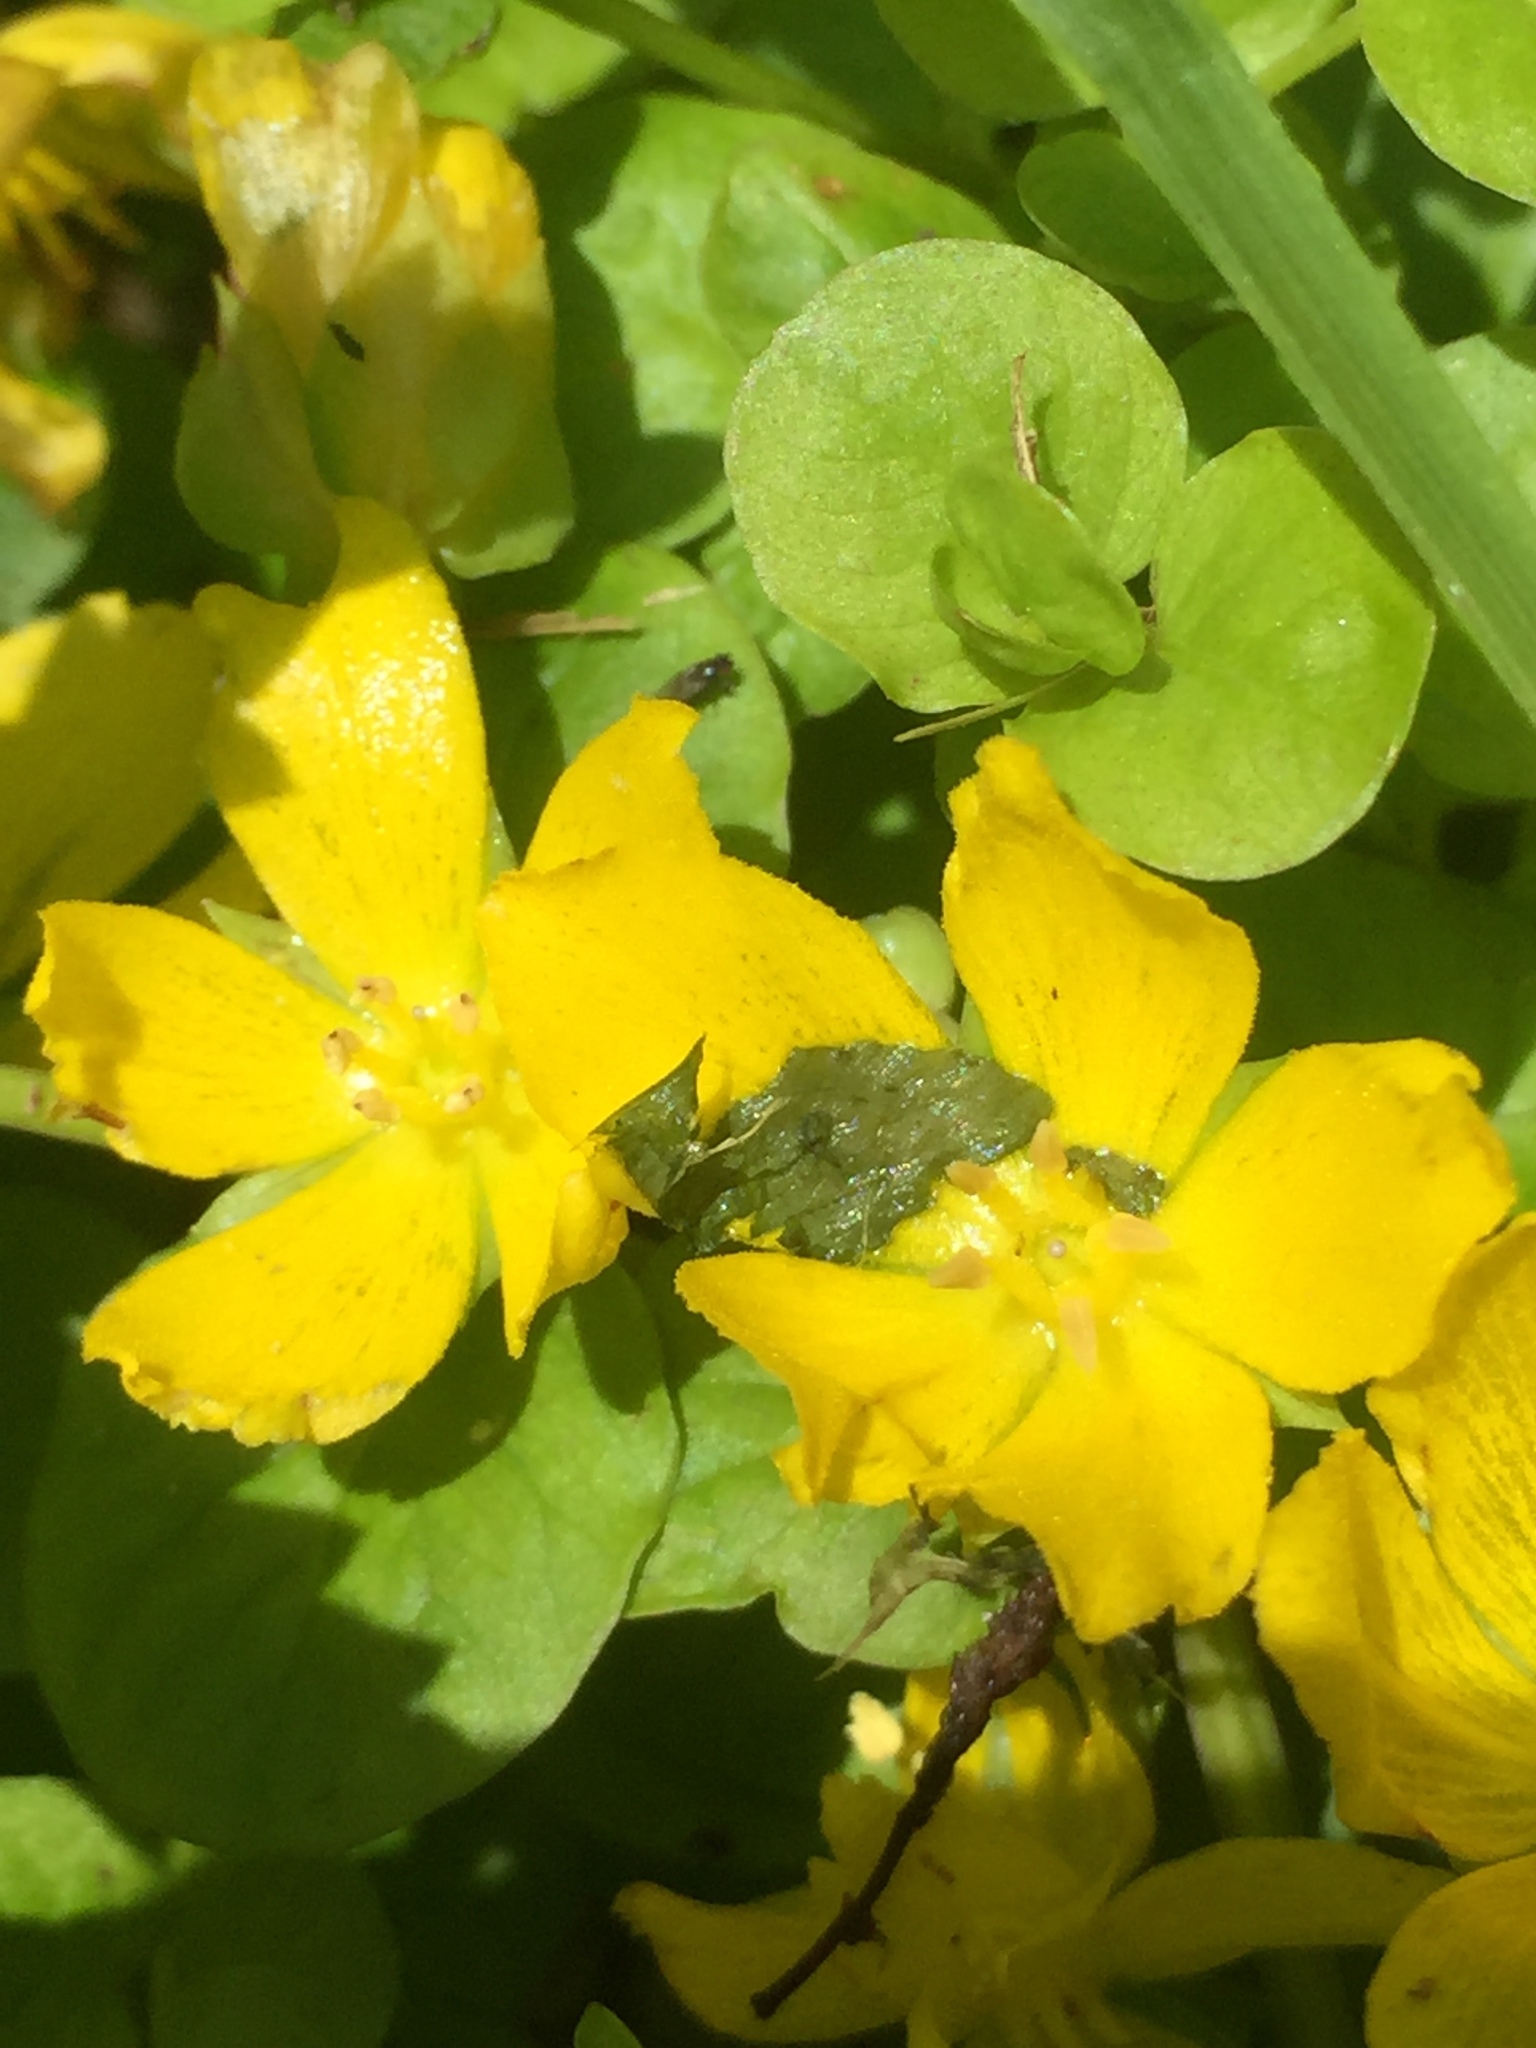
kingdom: Plantae
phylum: Tracheophyta
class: Magnoliopsida
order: Ericales
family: Primulaceae
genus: Lysimachia
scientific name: Lysimachia nummularia
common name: Moneywort
